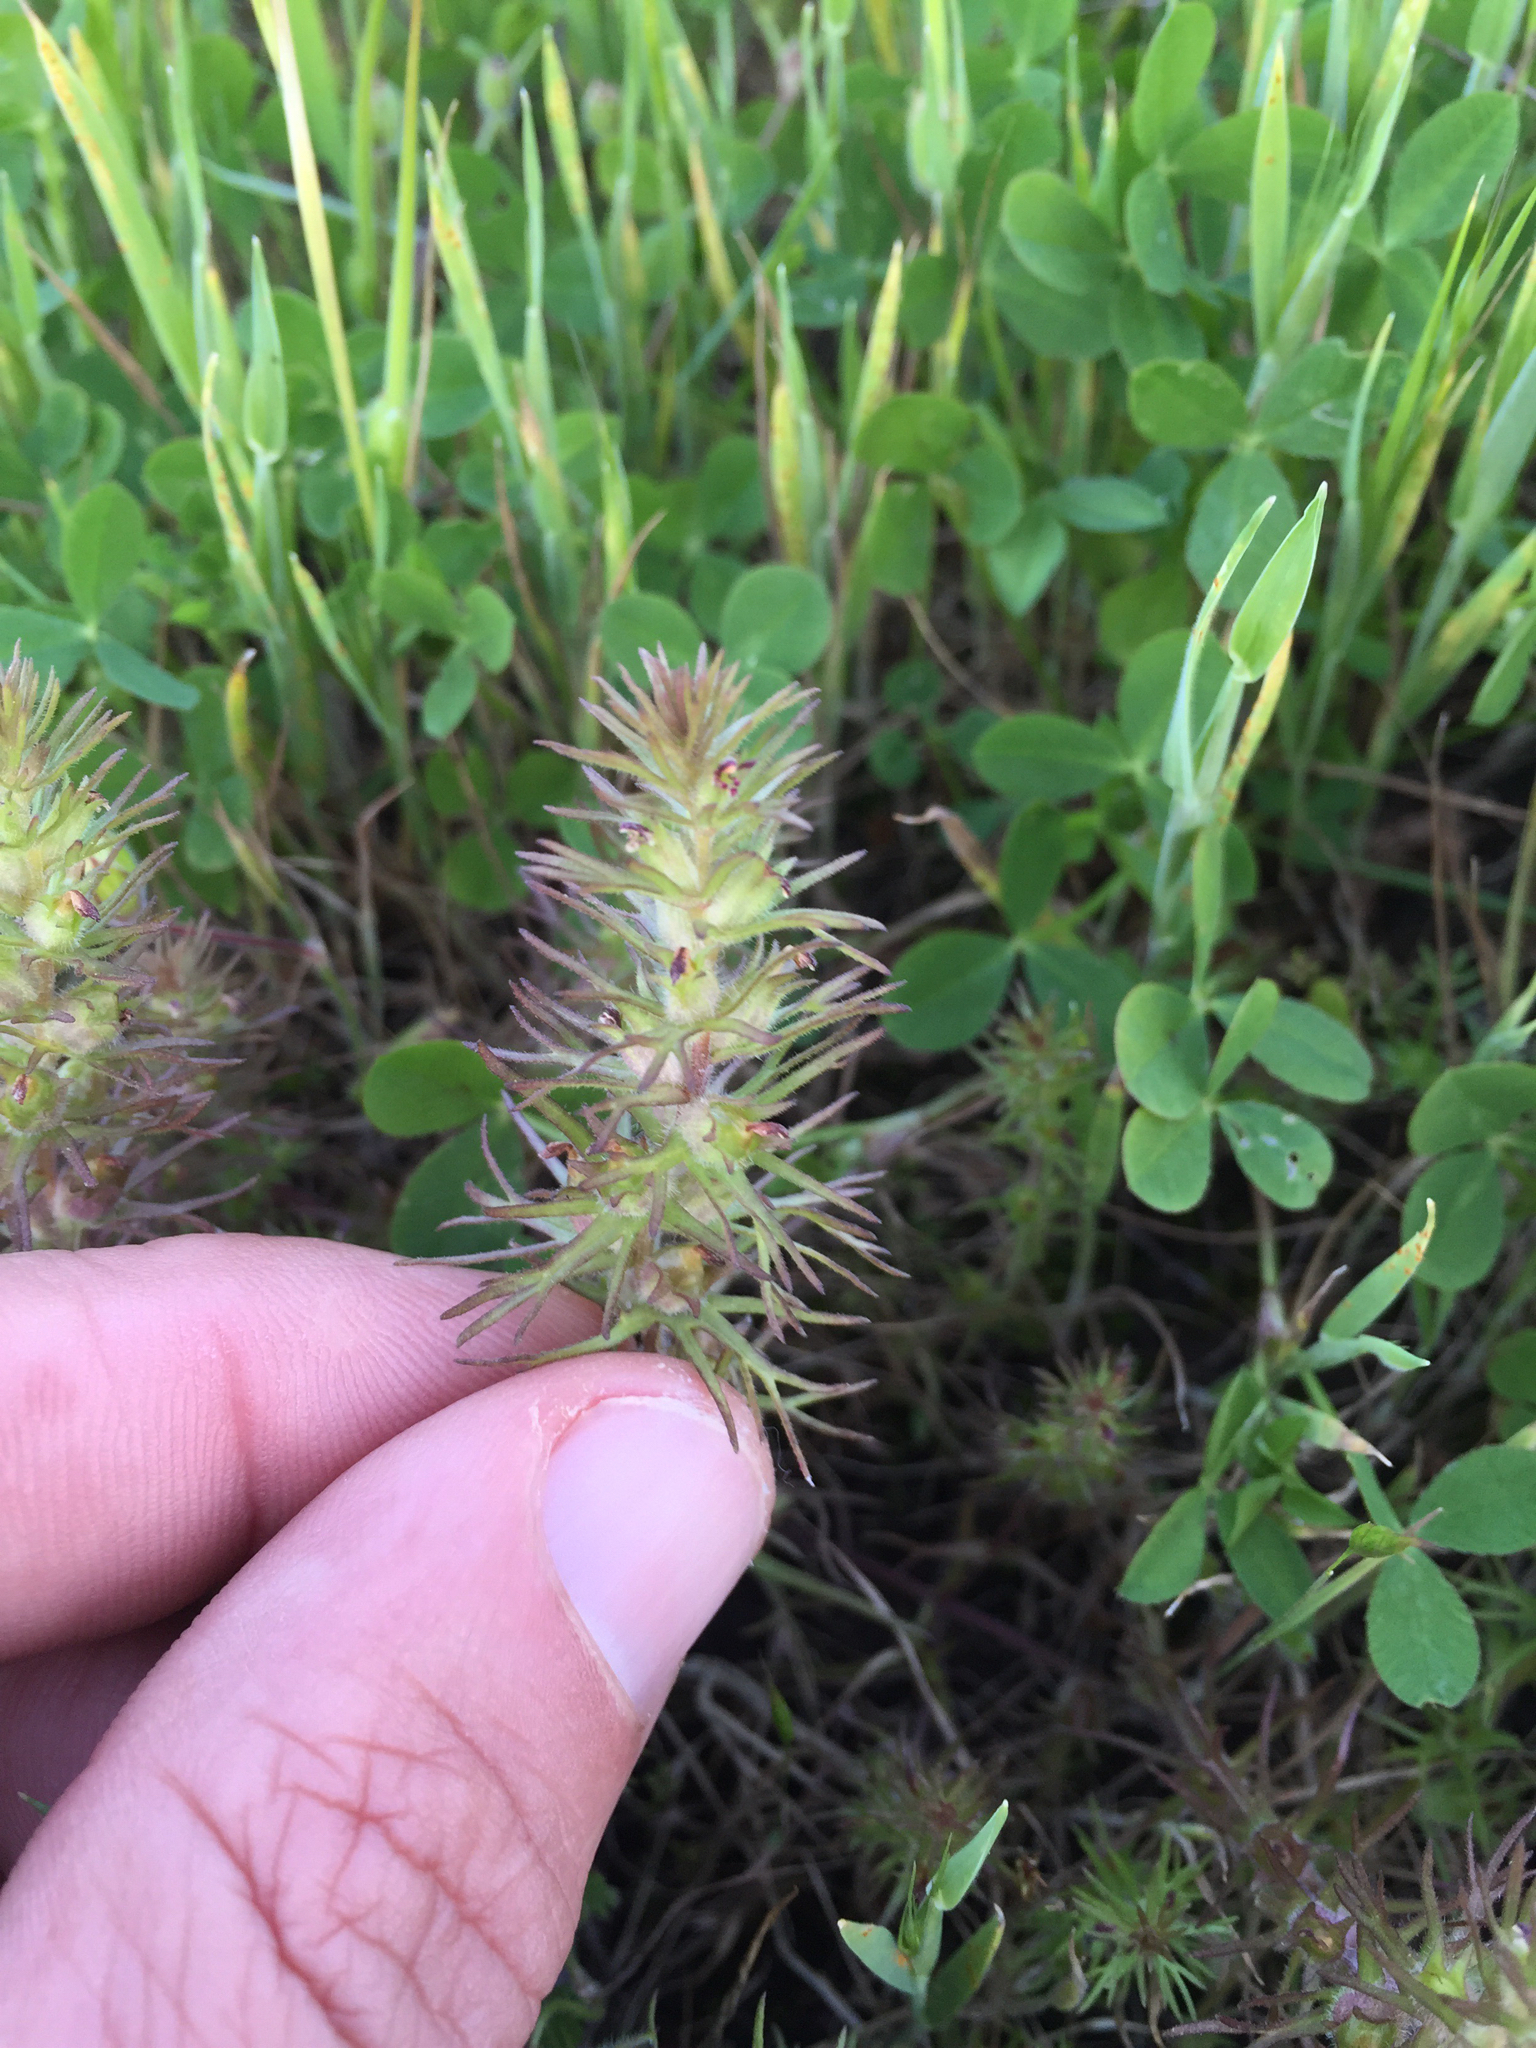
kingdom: Plantae
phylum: Tracheophyta
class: Magnoliopsida
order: Lamiales
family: Orobanchaceae
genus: Triphysaria
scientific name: Triphysaria pusilla
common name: Dwarf false owl-clover
